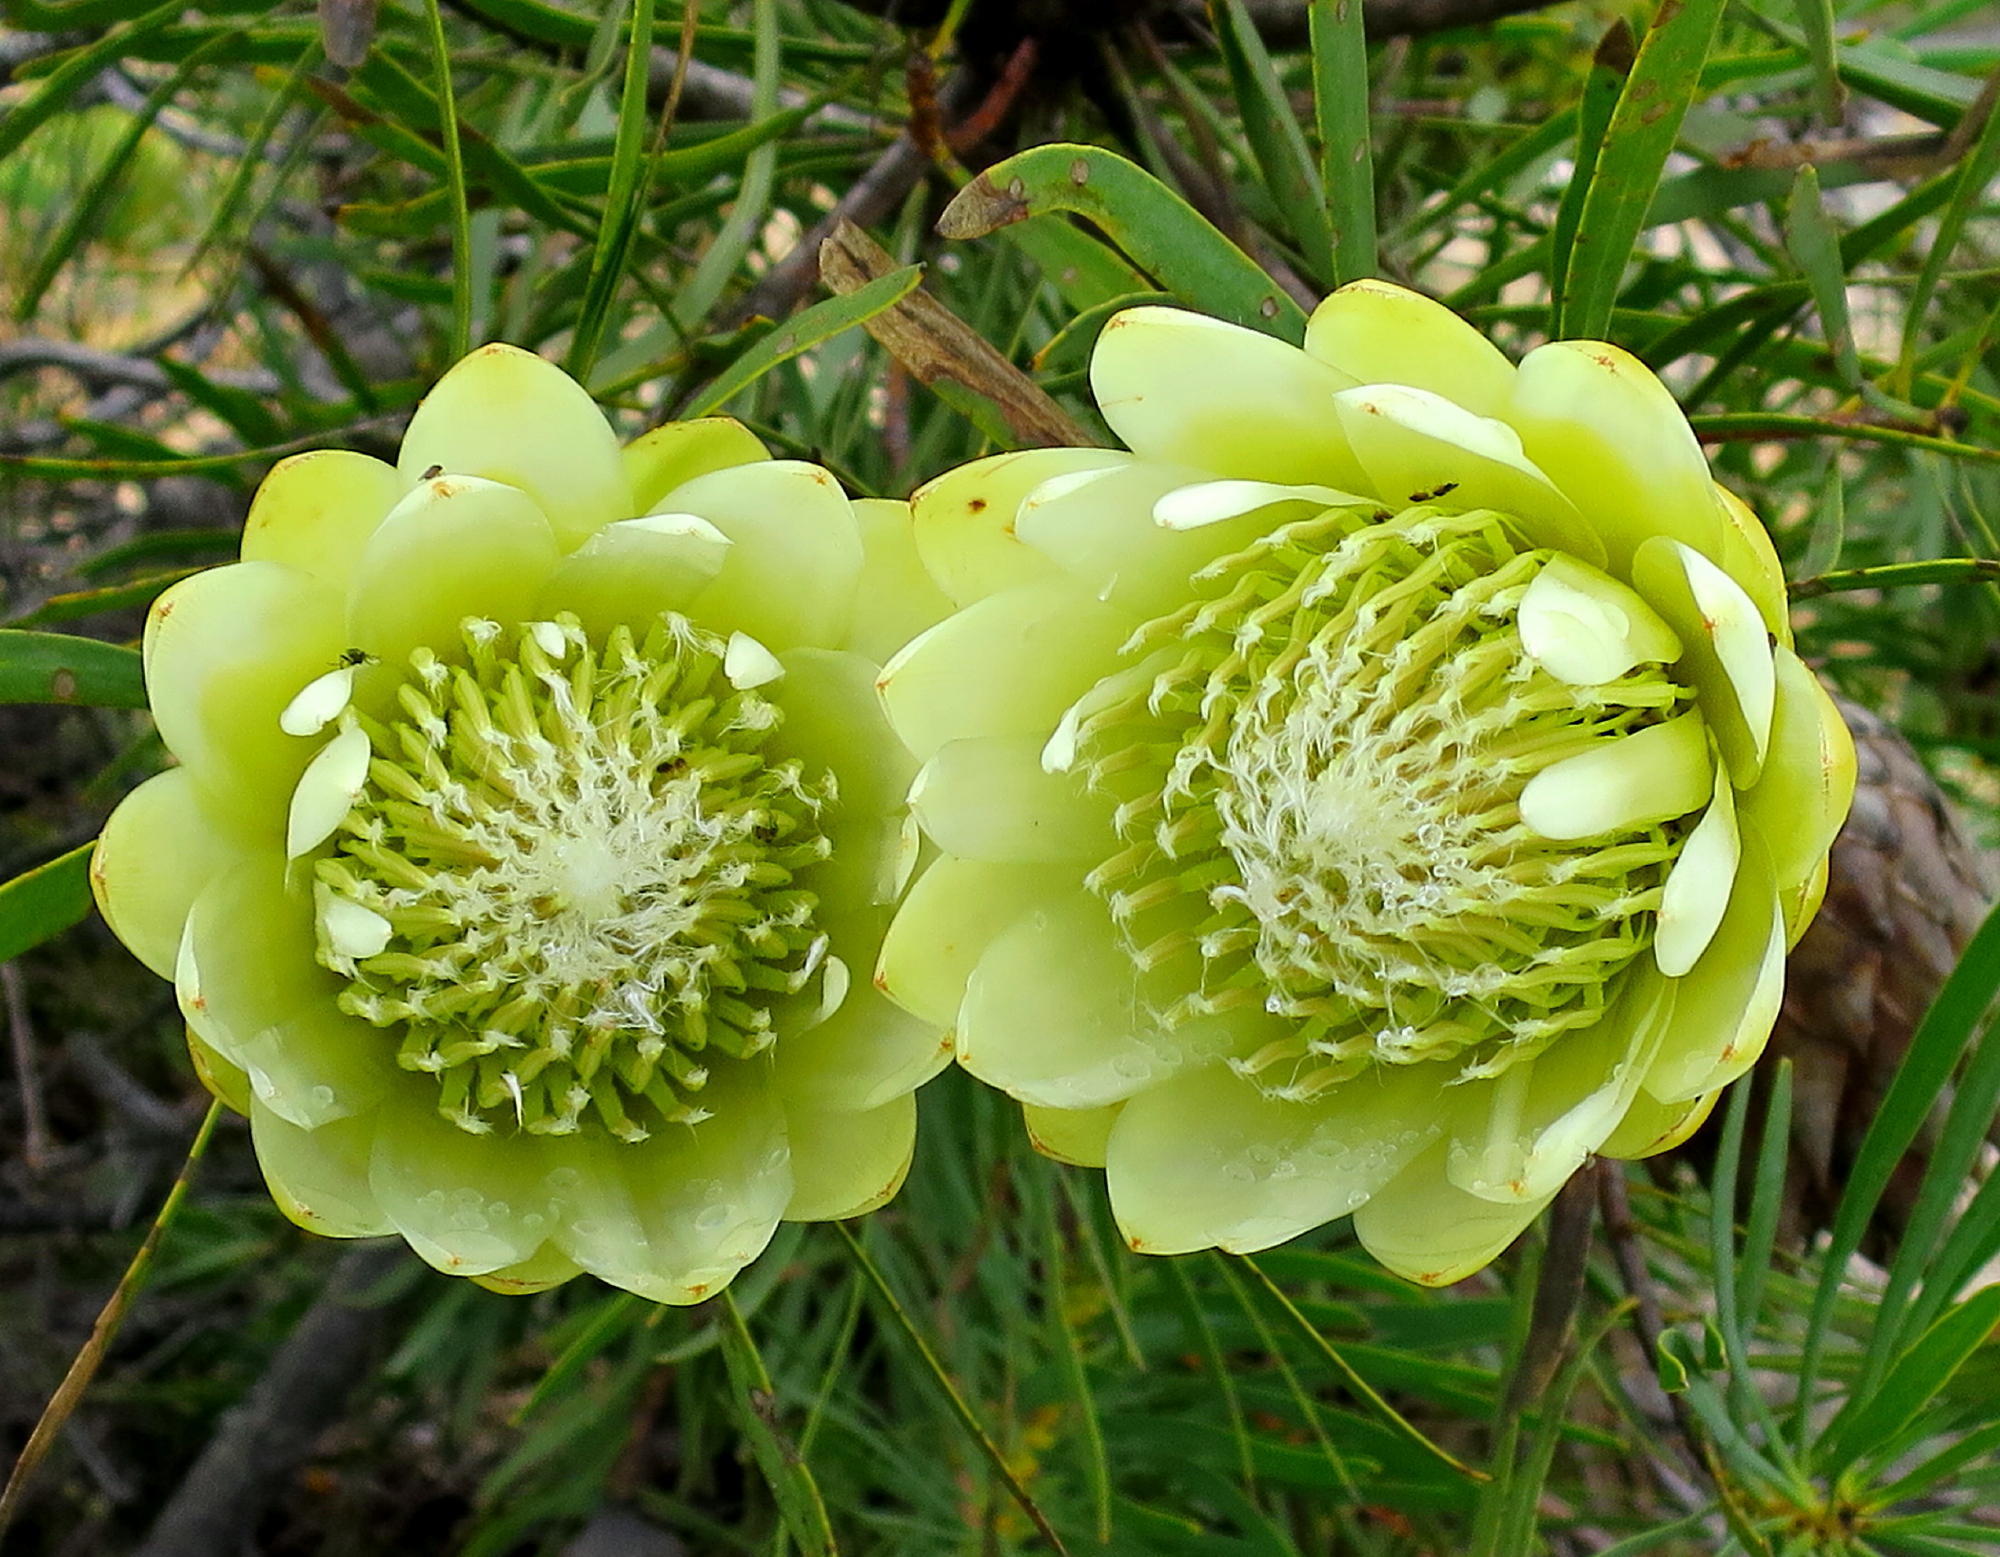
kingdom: Plantae
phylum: Tracheophyta
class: Magnoliopsida
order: Proteales
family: Proteaceae
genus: Protea
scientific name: Protea repens
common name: Sugarbush
